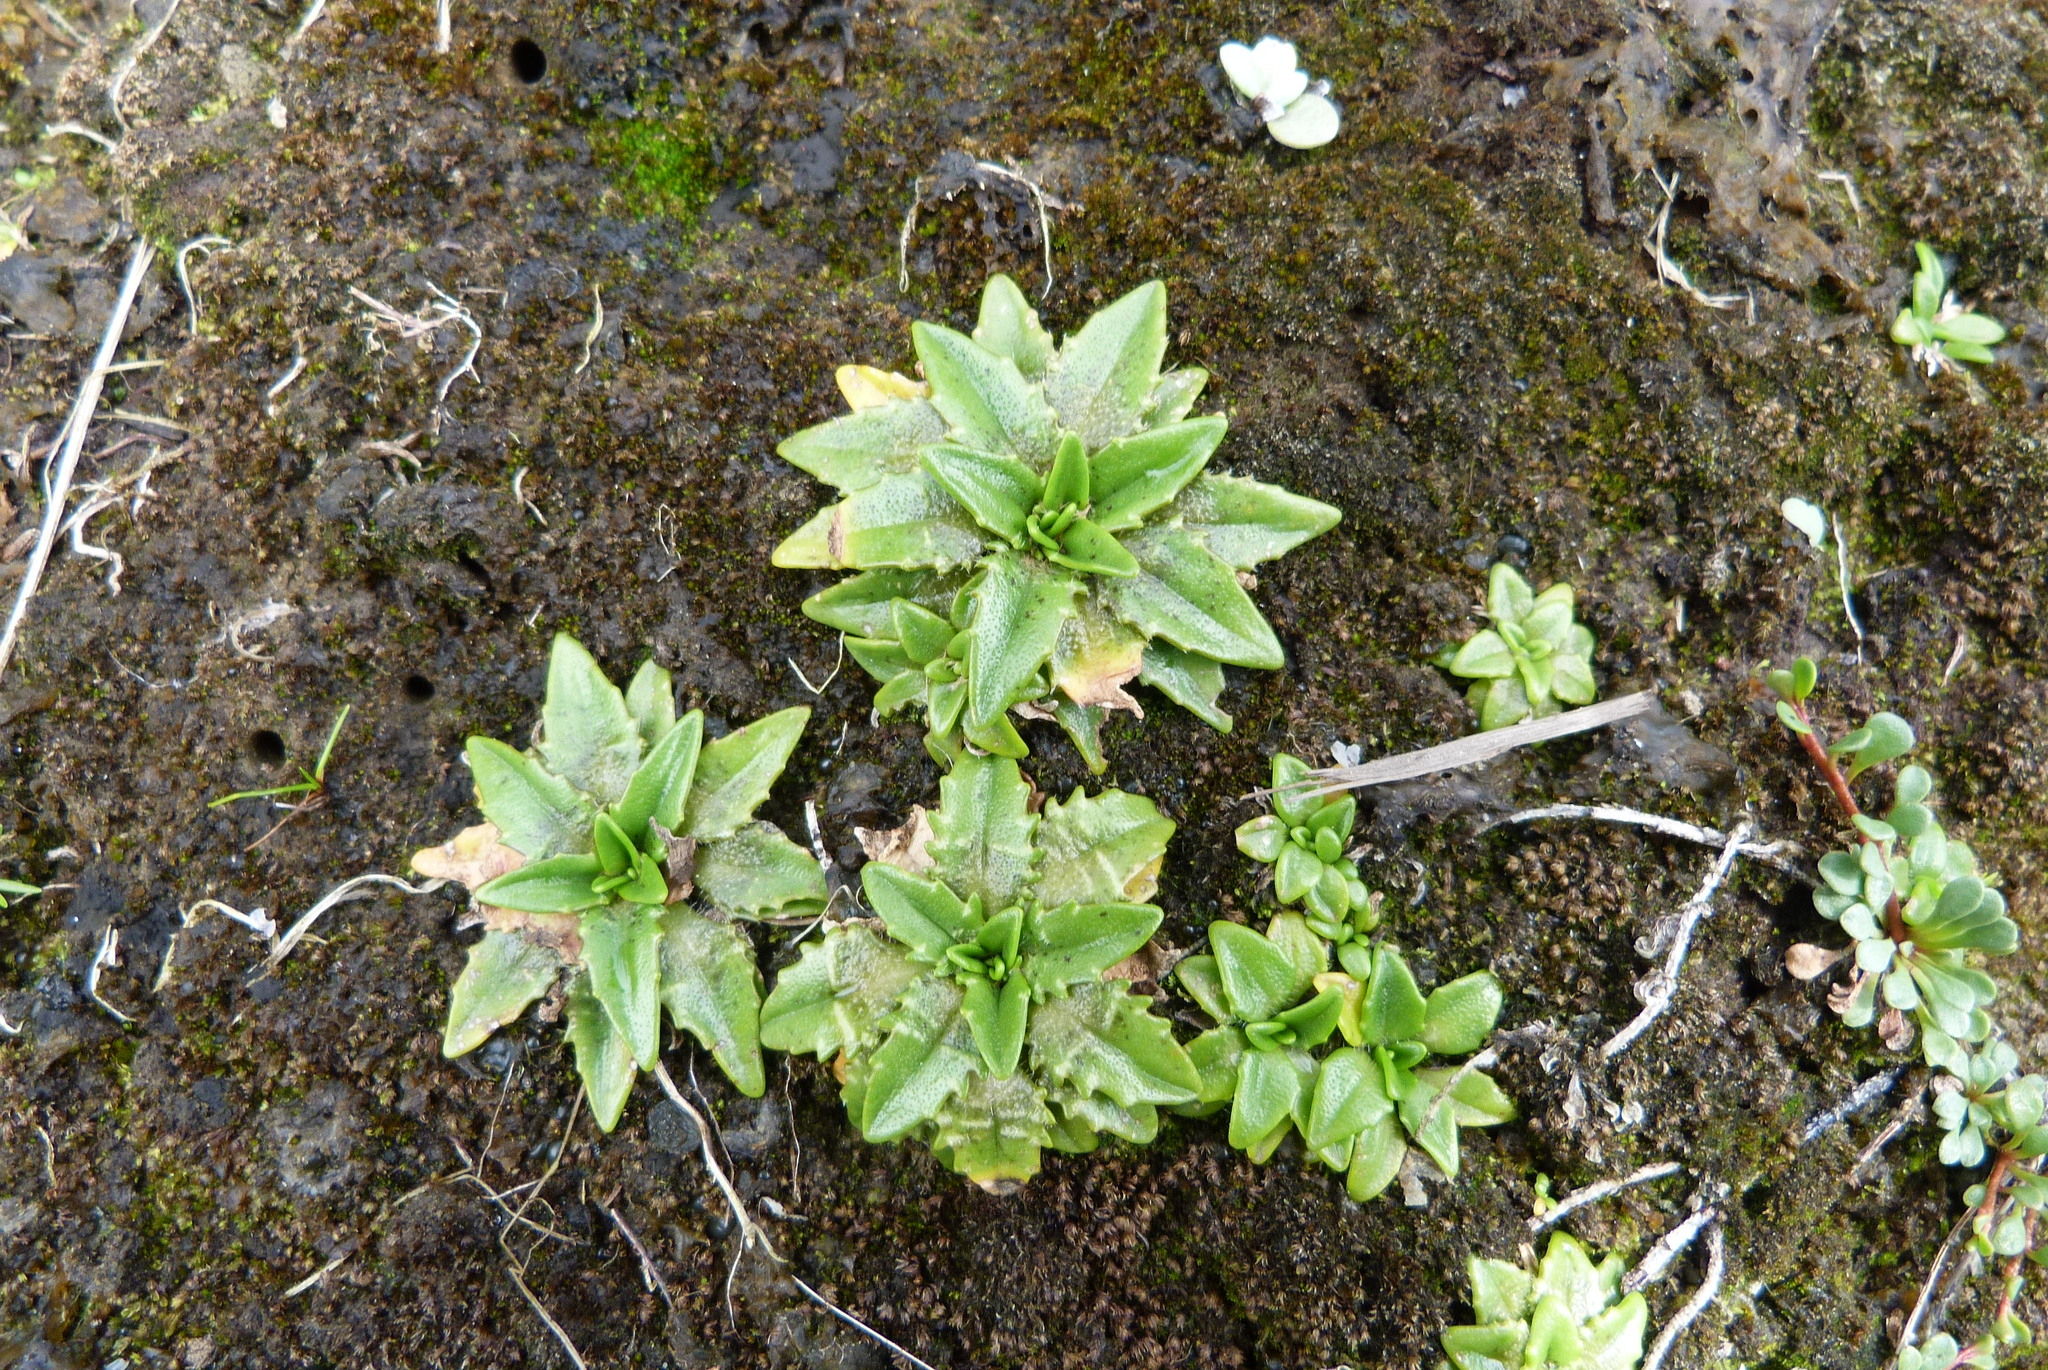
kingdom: Plantae
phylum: Tracheophyta
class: Magnoliopsida
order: Lamiales
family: Plantaginaceae
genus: Plantago
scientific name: Plantago triandra
